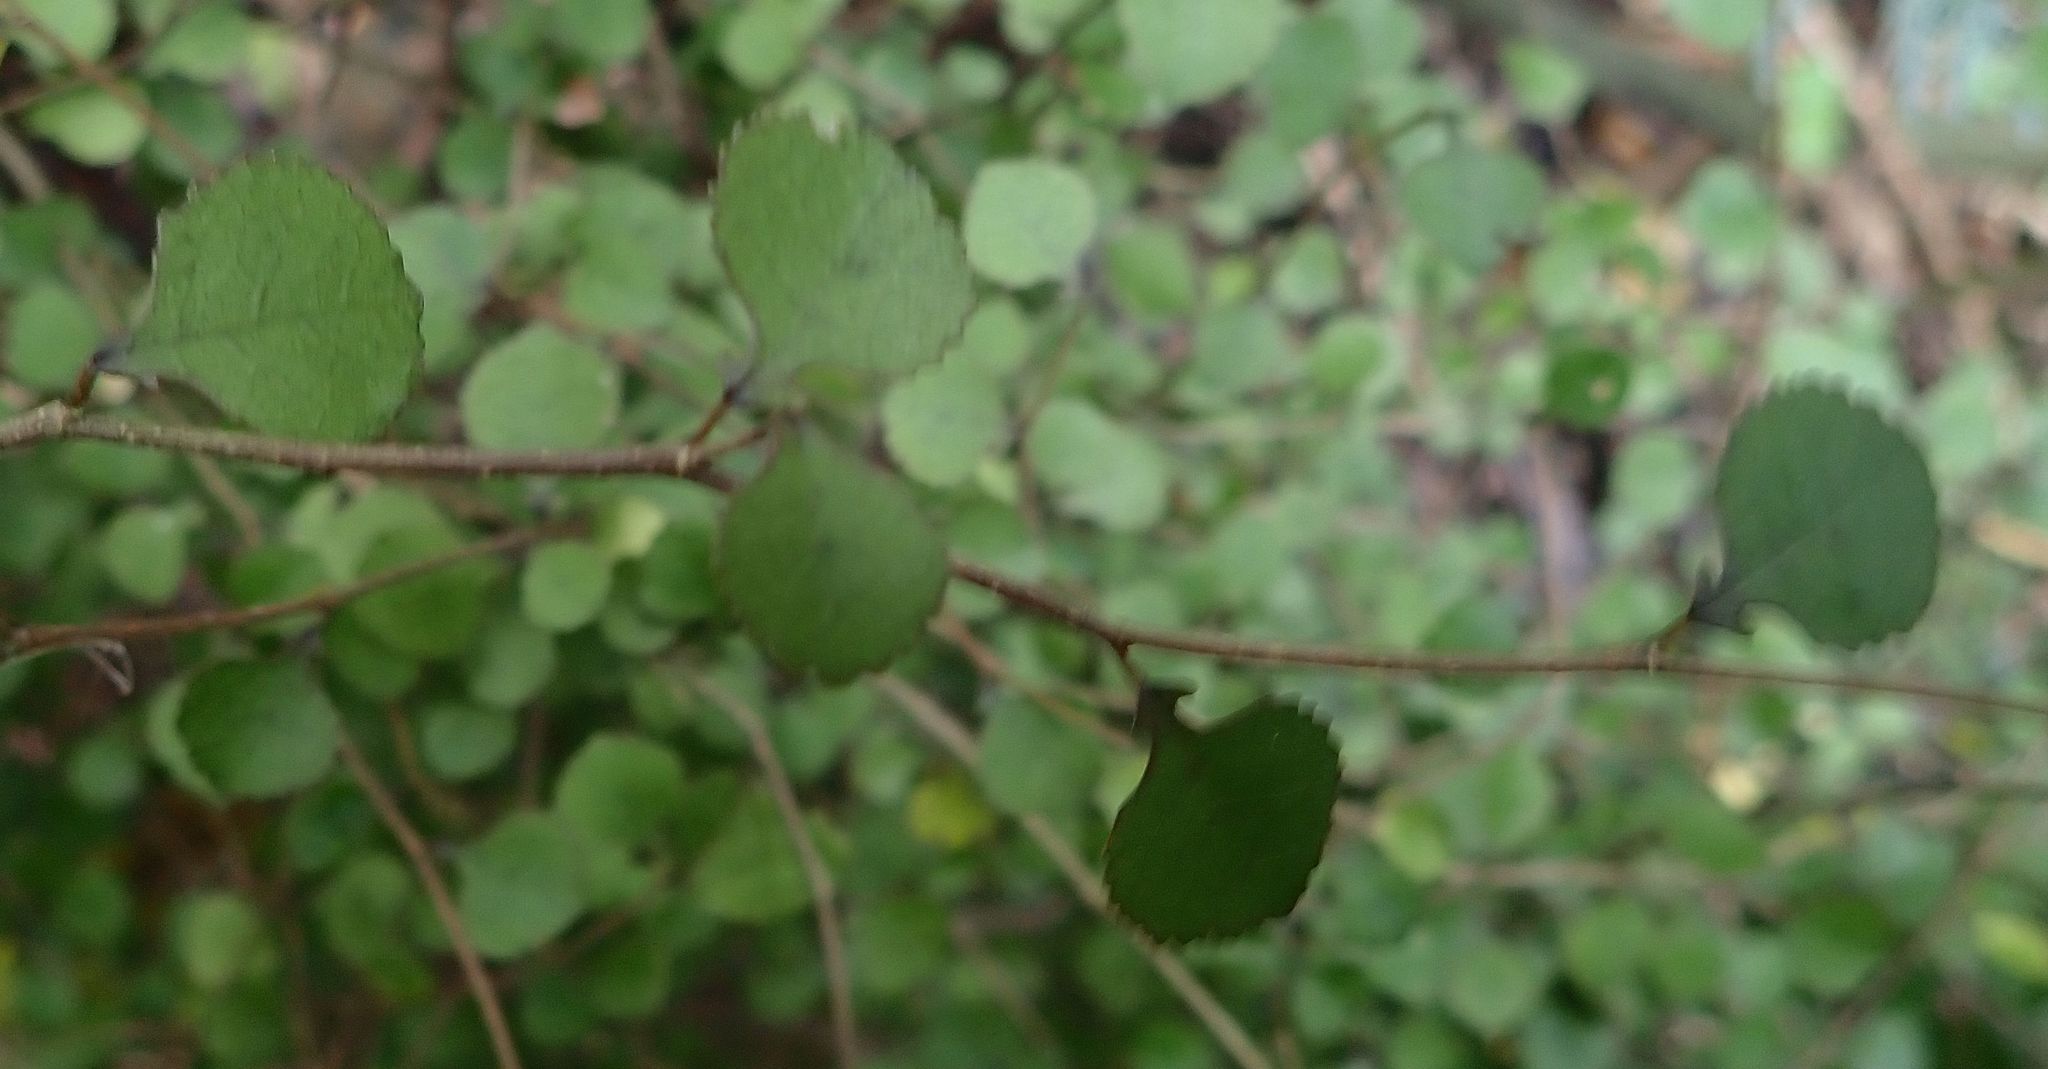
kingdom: Plantae
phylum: Tracheophyta
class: Magnoliopsida
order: Rosales
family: Moraceae
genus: Paratrophis
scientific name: Paratrophis microphylla
